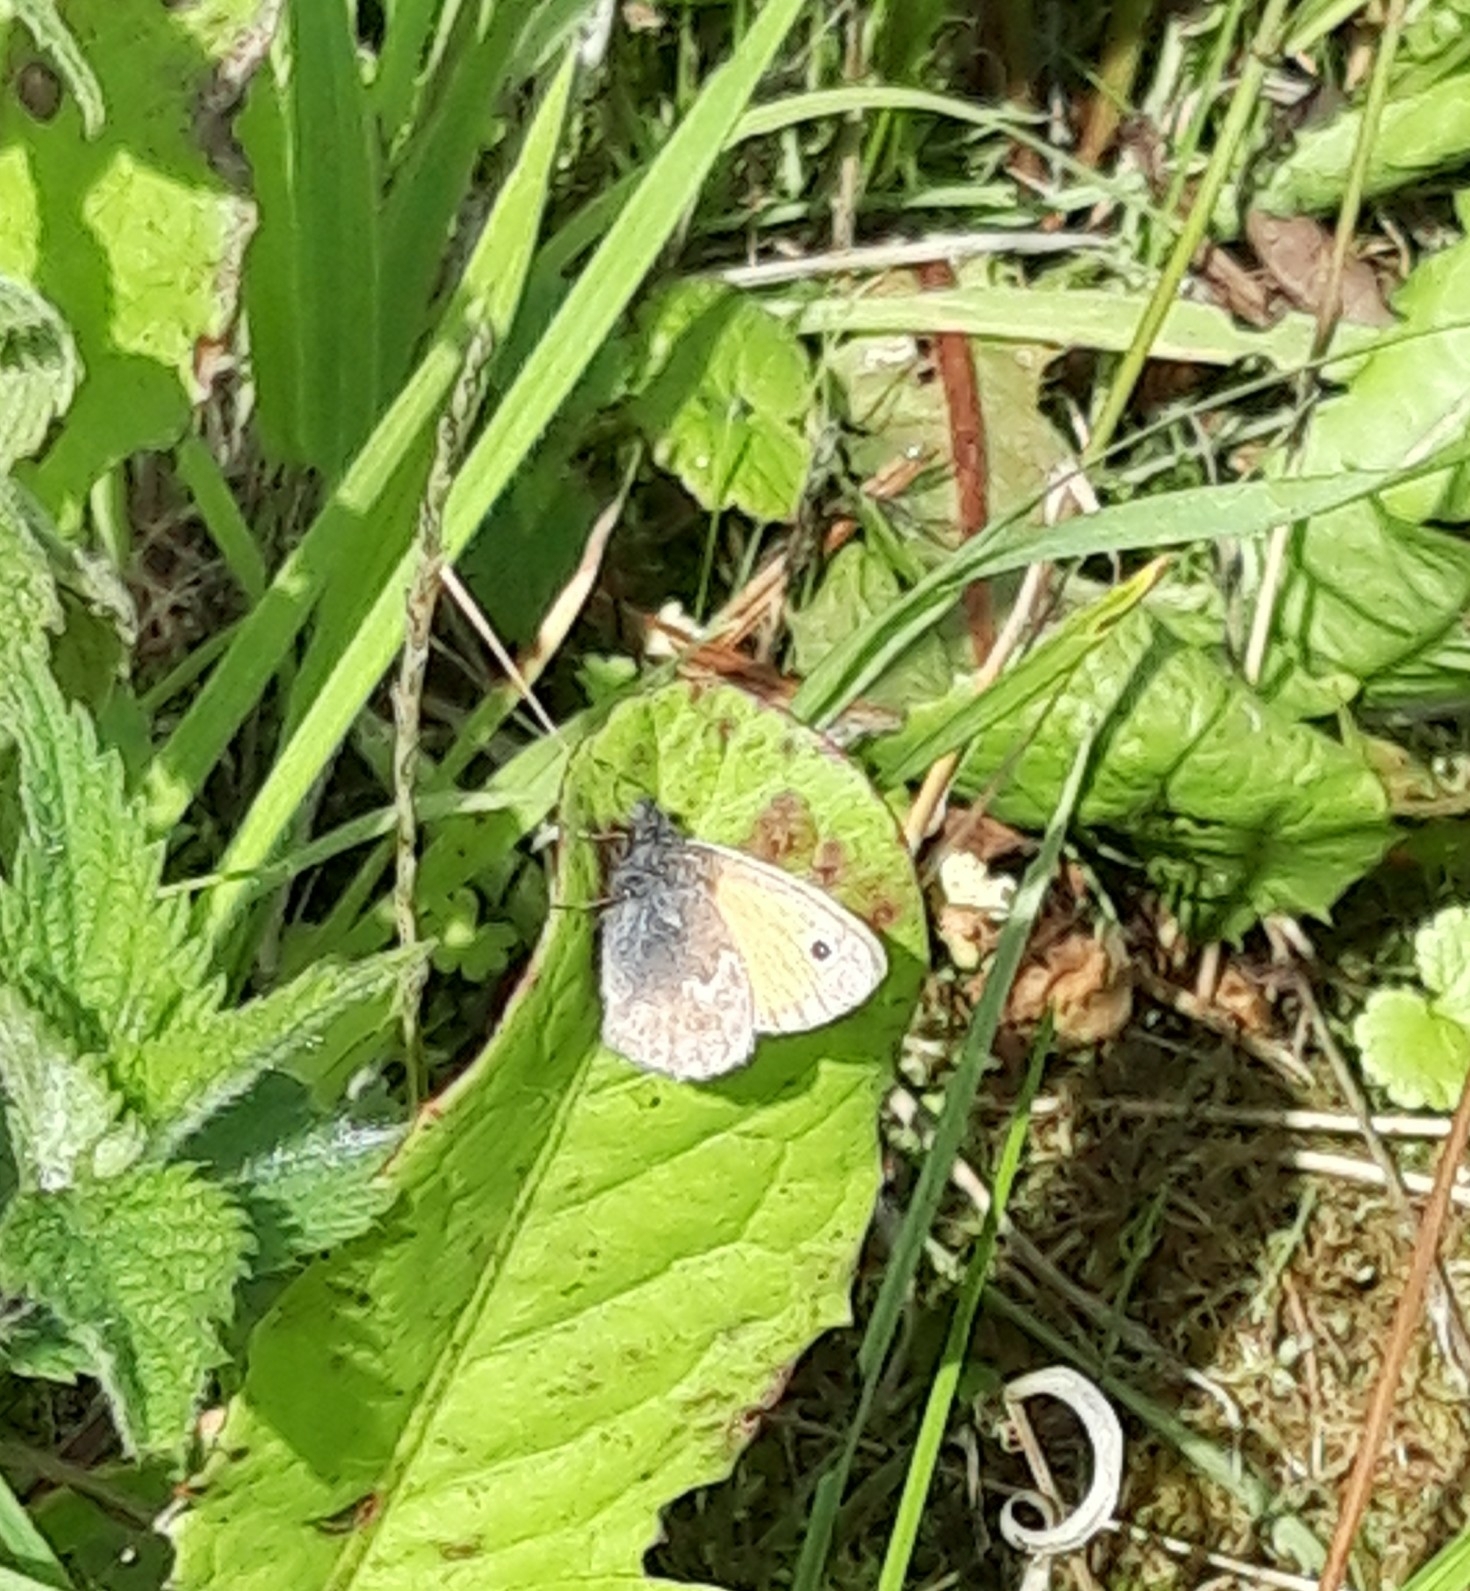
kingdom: Animalia
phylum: Arthropoda
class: Insecta
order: Lepidoptera
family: Nymphalidae
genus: Coenonympha
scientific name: Coenonympha pamphilus
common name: Small heath
